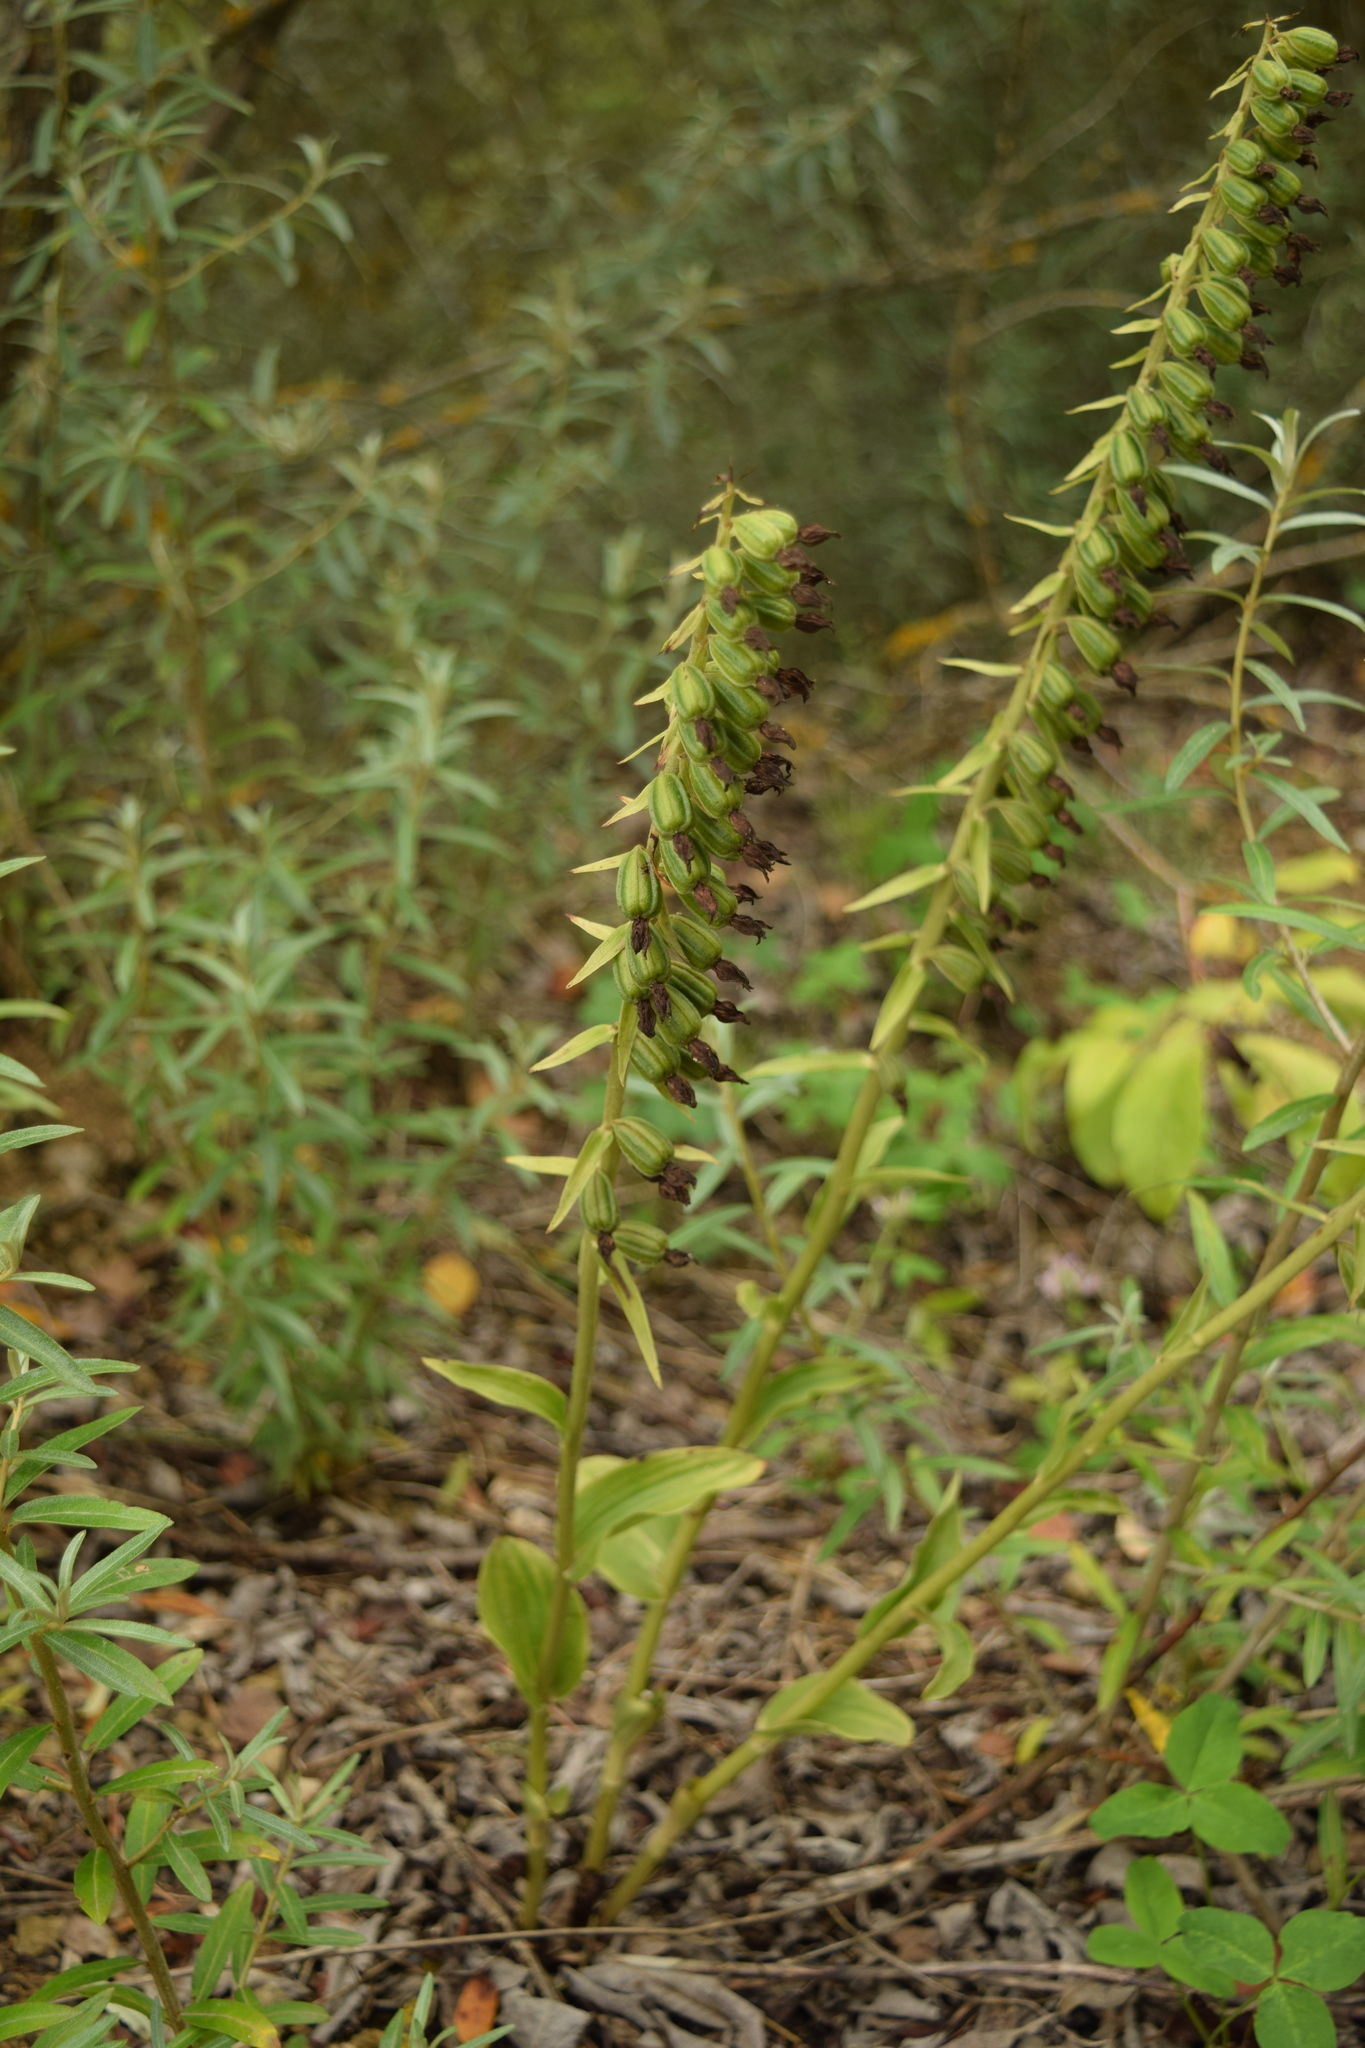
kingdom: Plantae
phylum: Tracheophyta
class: Liliopsida
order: Asparagales
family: Orchidaceae
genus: Epipactis
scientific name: Epipactis helleborine
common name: Broad-leaved helleborine
